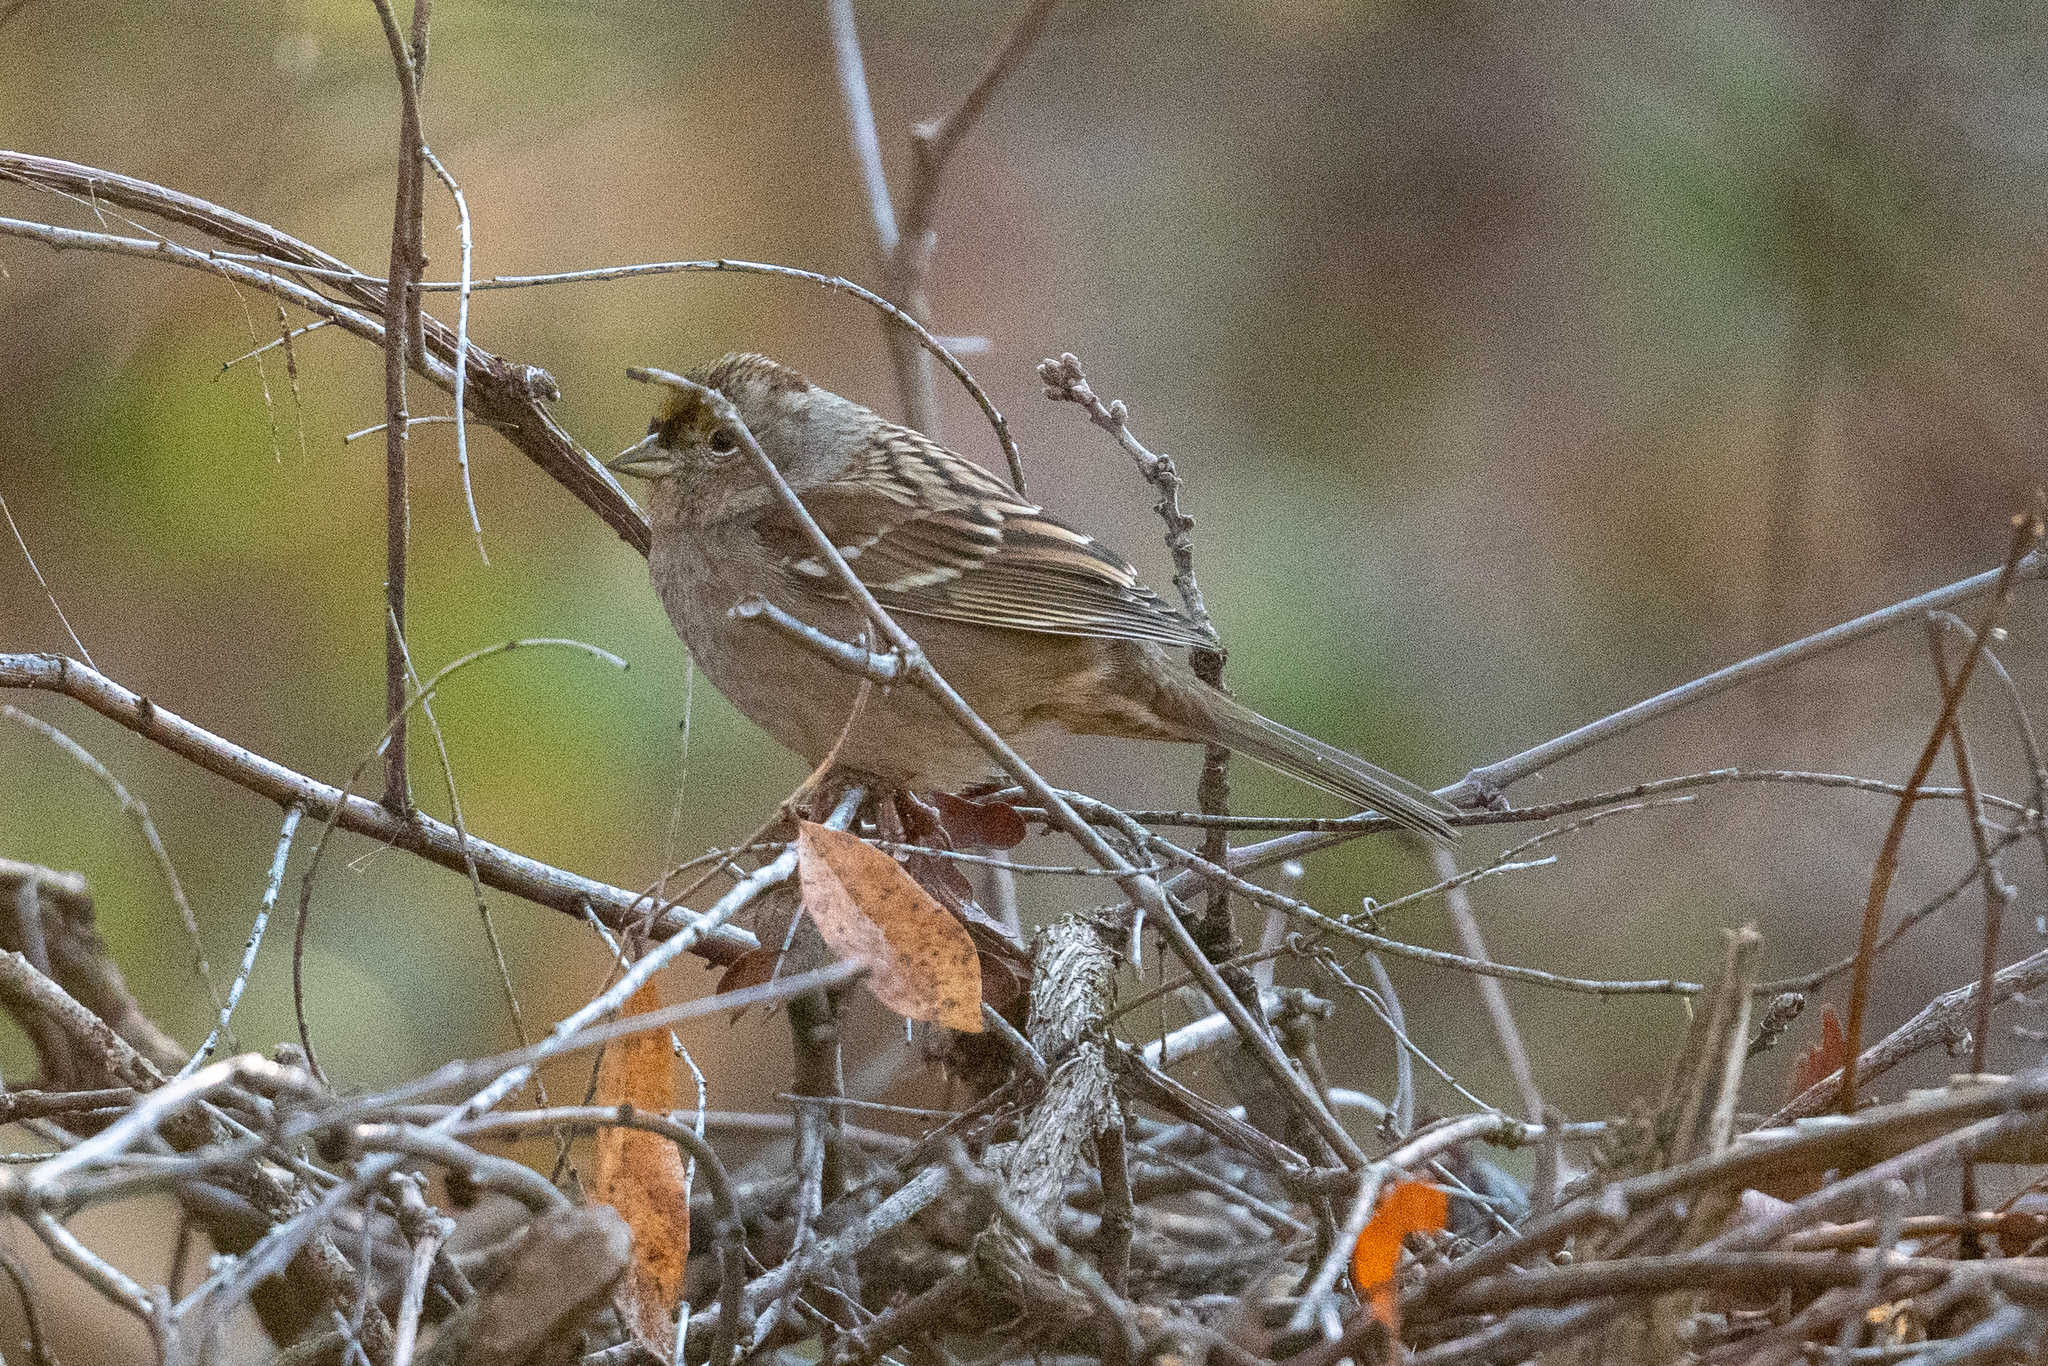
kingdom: Animalia
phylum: Chordata
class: Aves
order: Passeriformes
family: Passerellidae
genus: Zonotrichia
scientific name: Zonotrichia atricapilla
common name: Golden-crowned sparrow
